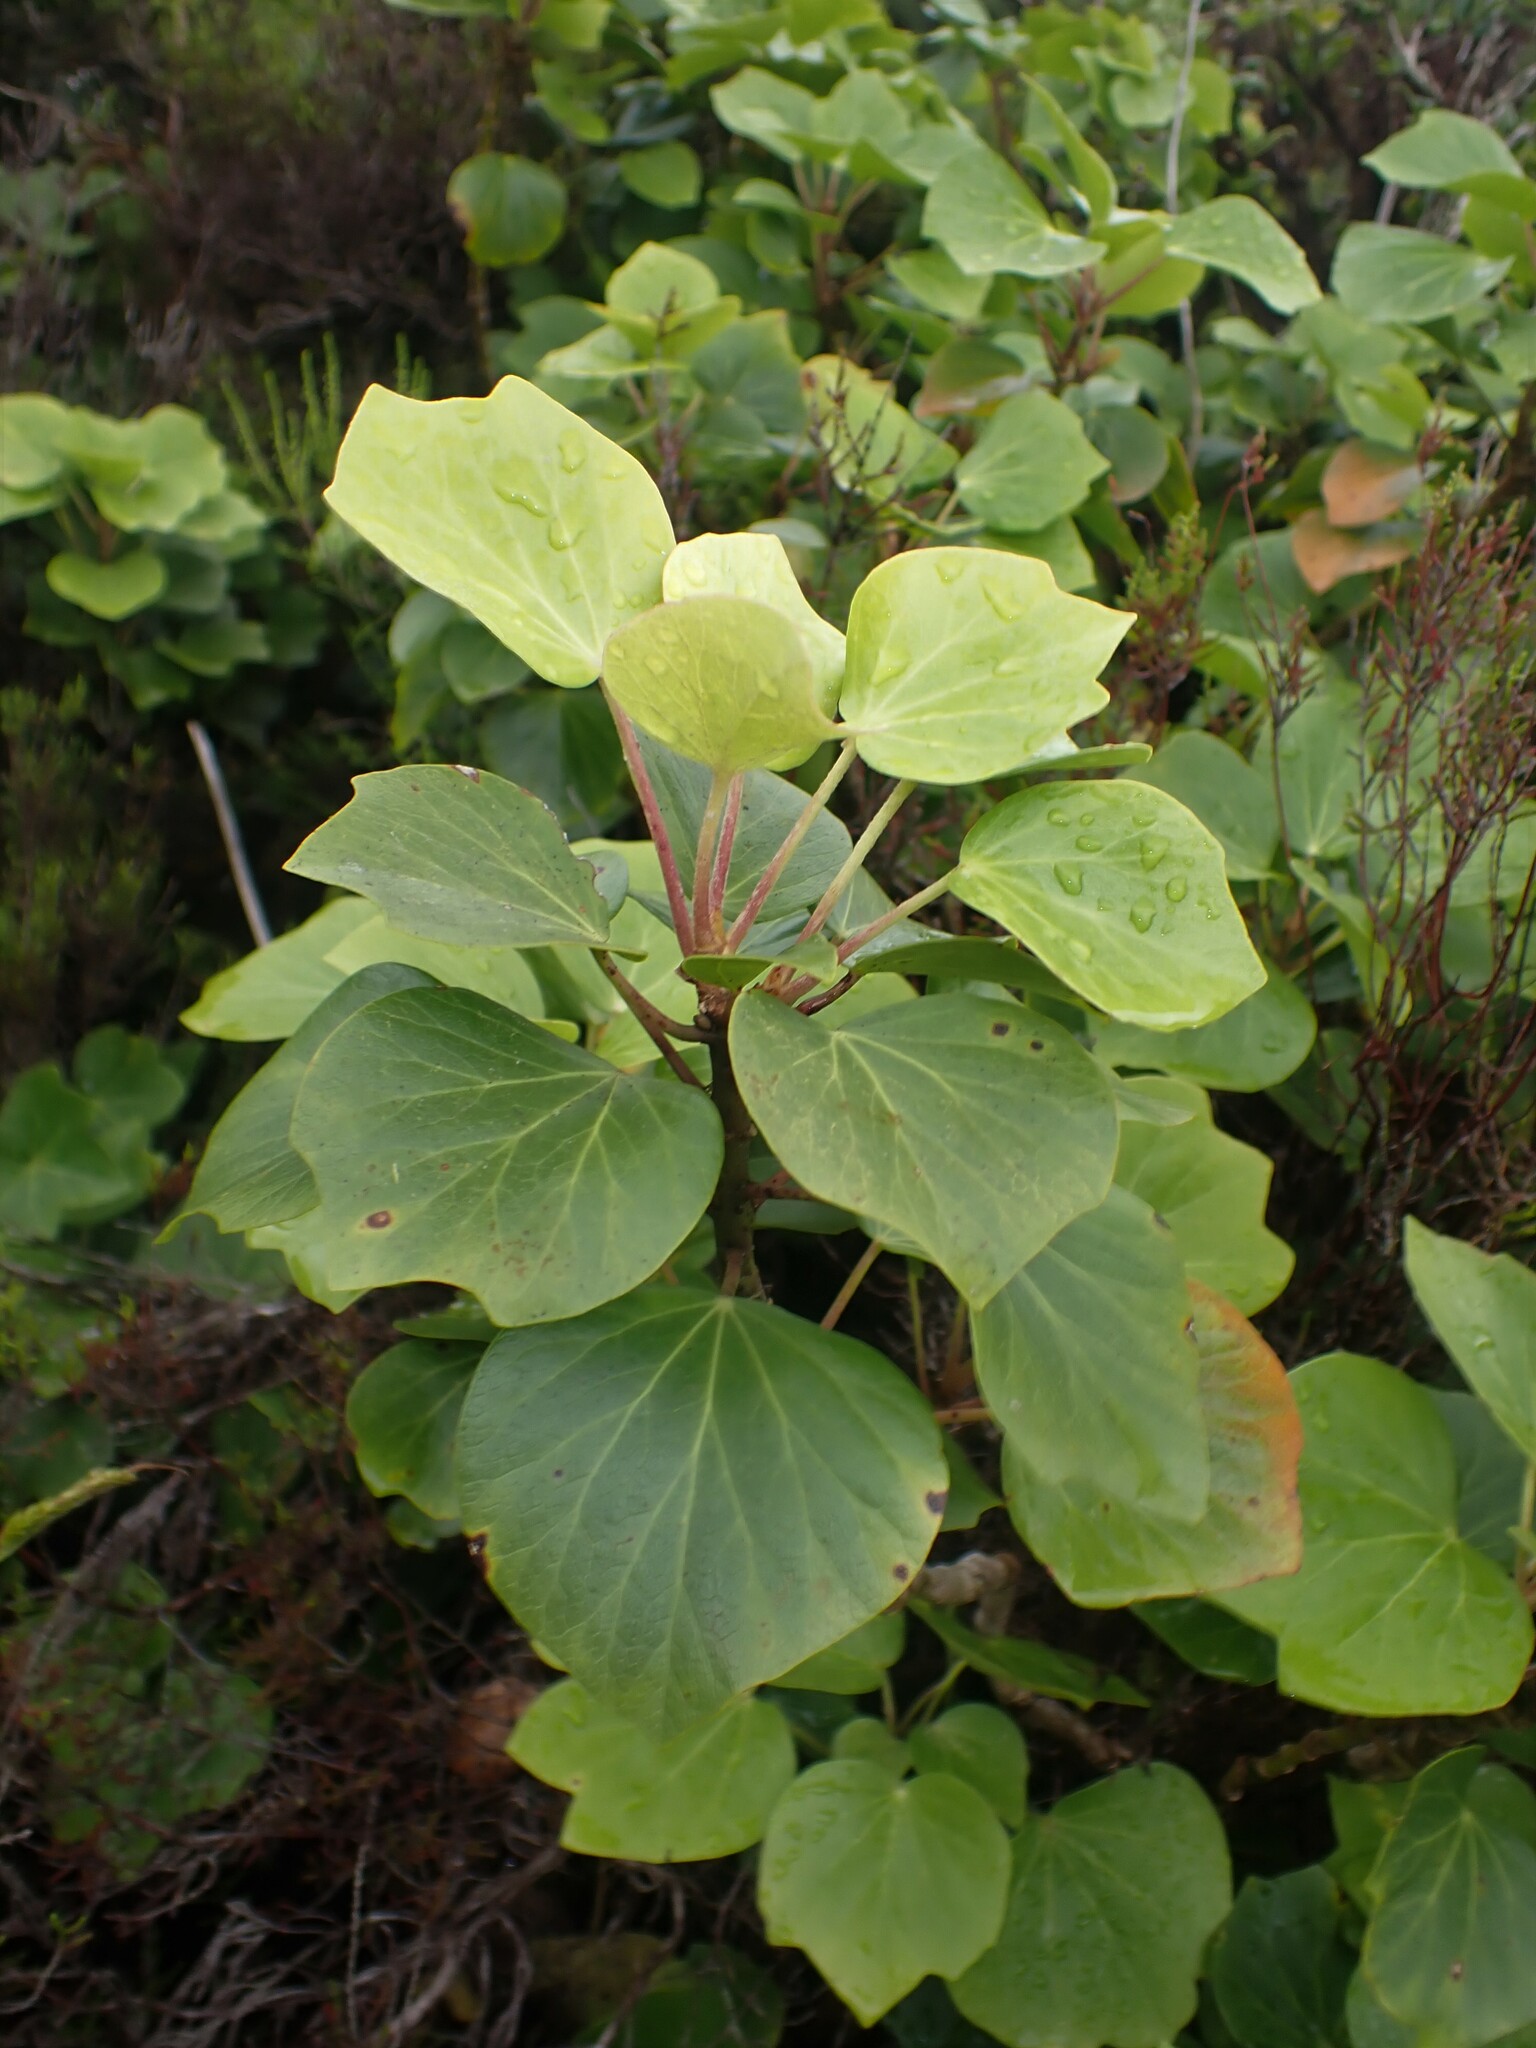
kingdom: Plantae
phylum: Tracheophyta
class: Magnoliopsida
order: Apiales
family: Araliaceae
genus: Hedera
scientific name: Hedera azorica
